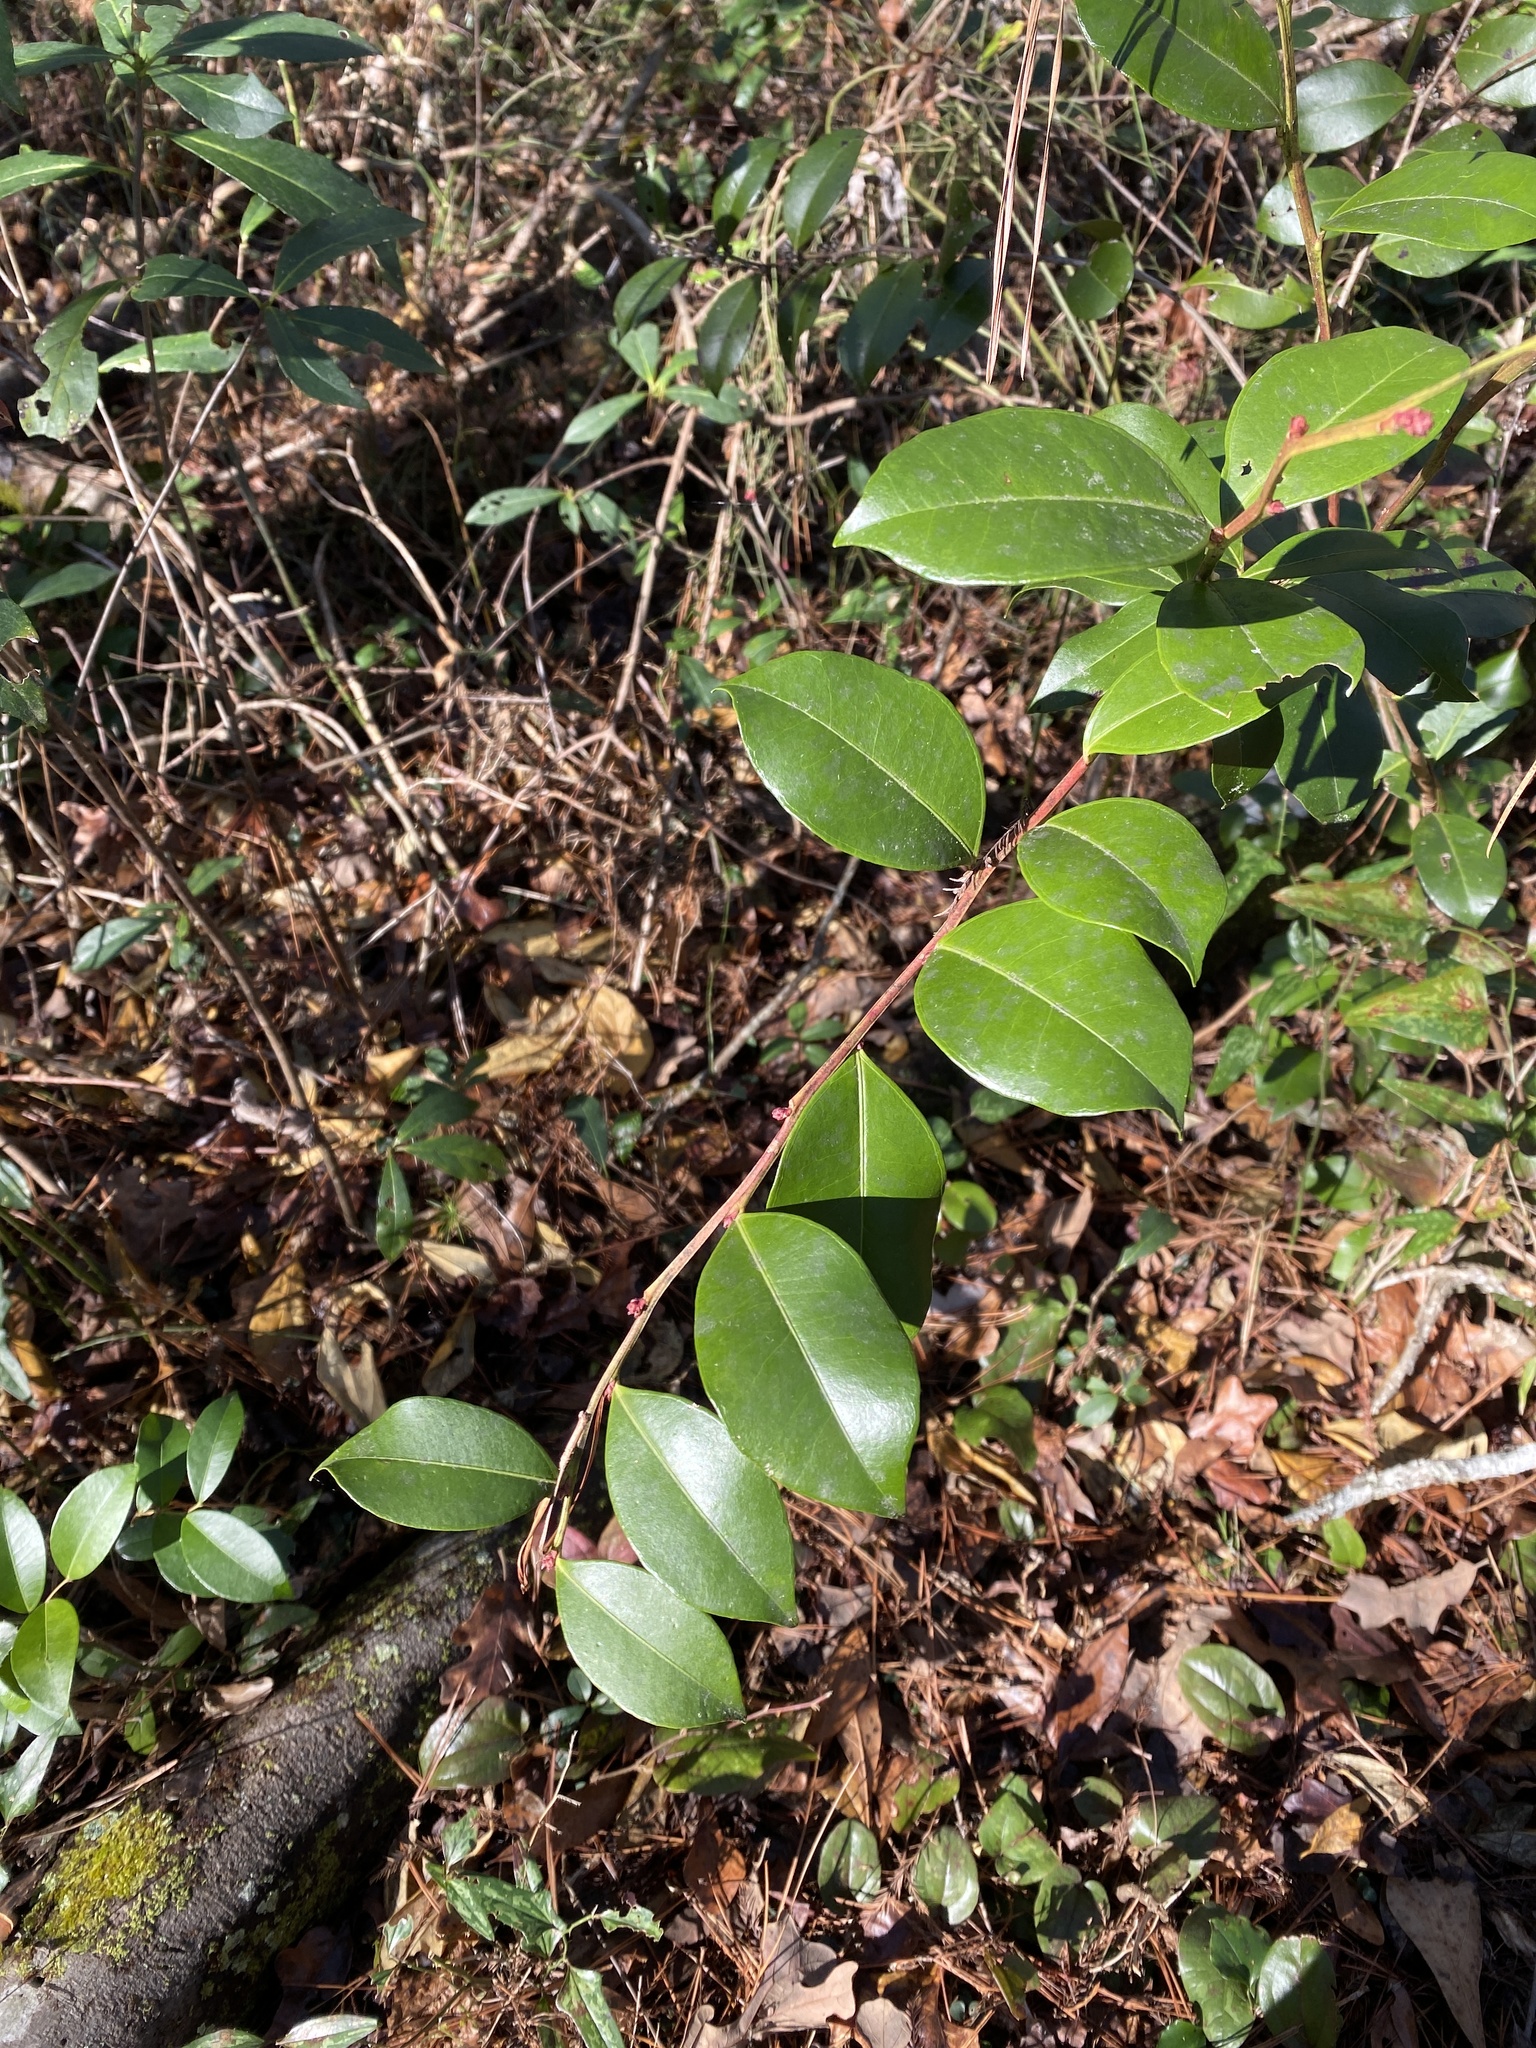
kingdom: Plantae
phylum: Tracheophyta
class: Magnoliopsida
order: Ericales
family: Ericaceae
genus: Lyonia
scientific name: Lyonia lucida
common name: Fetterbush
